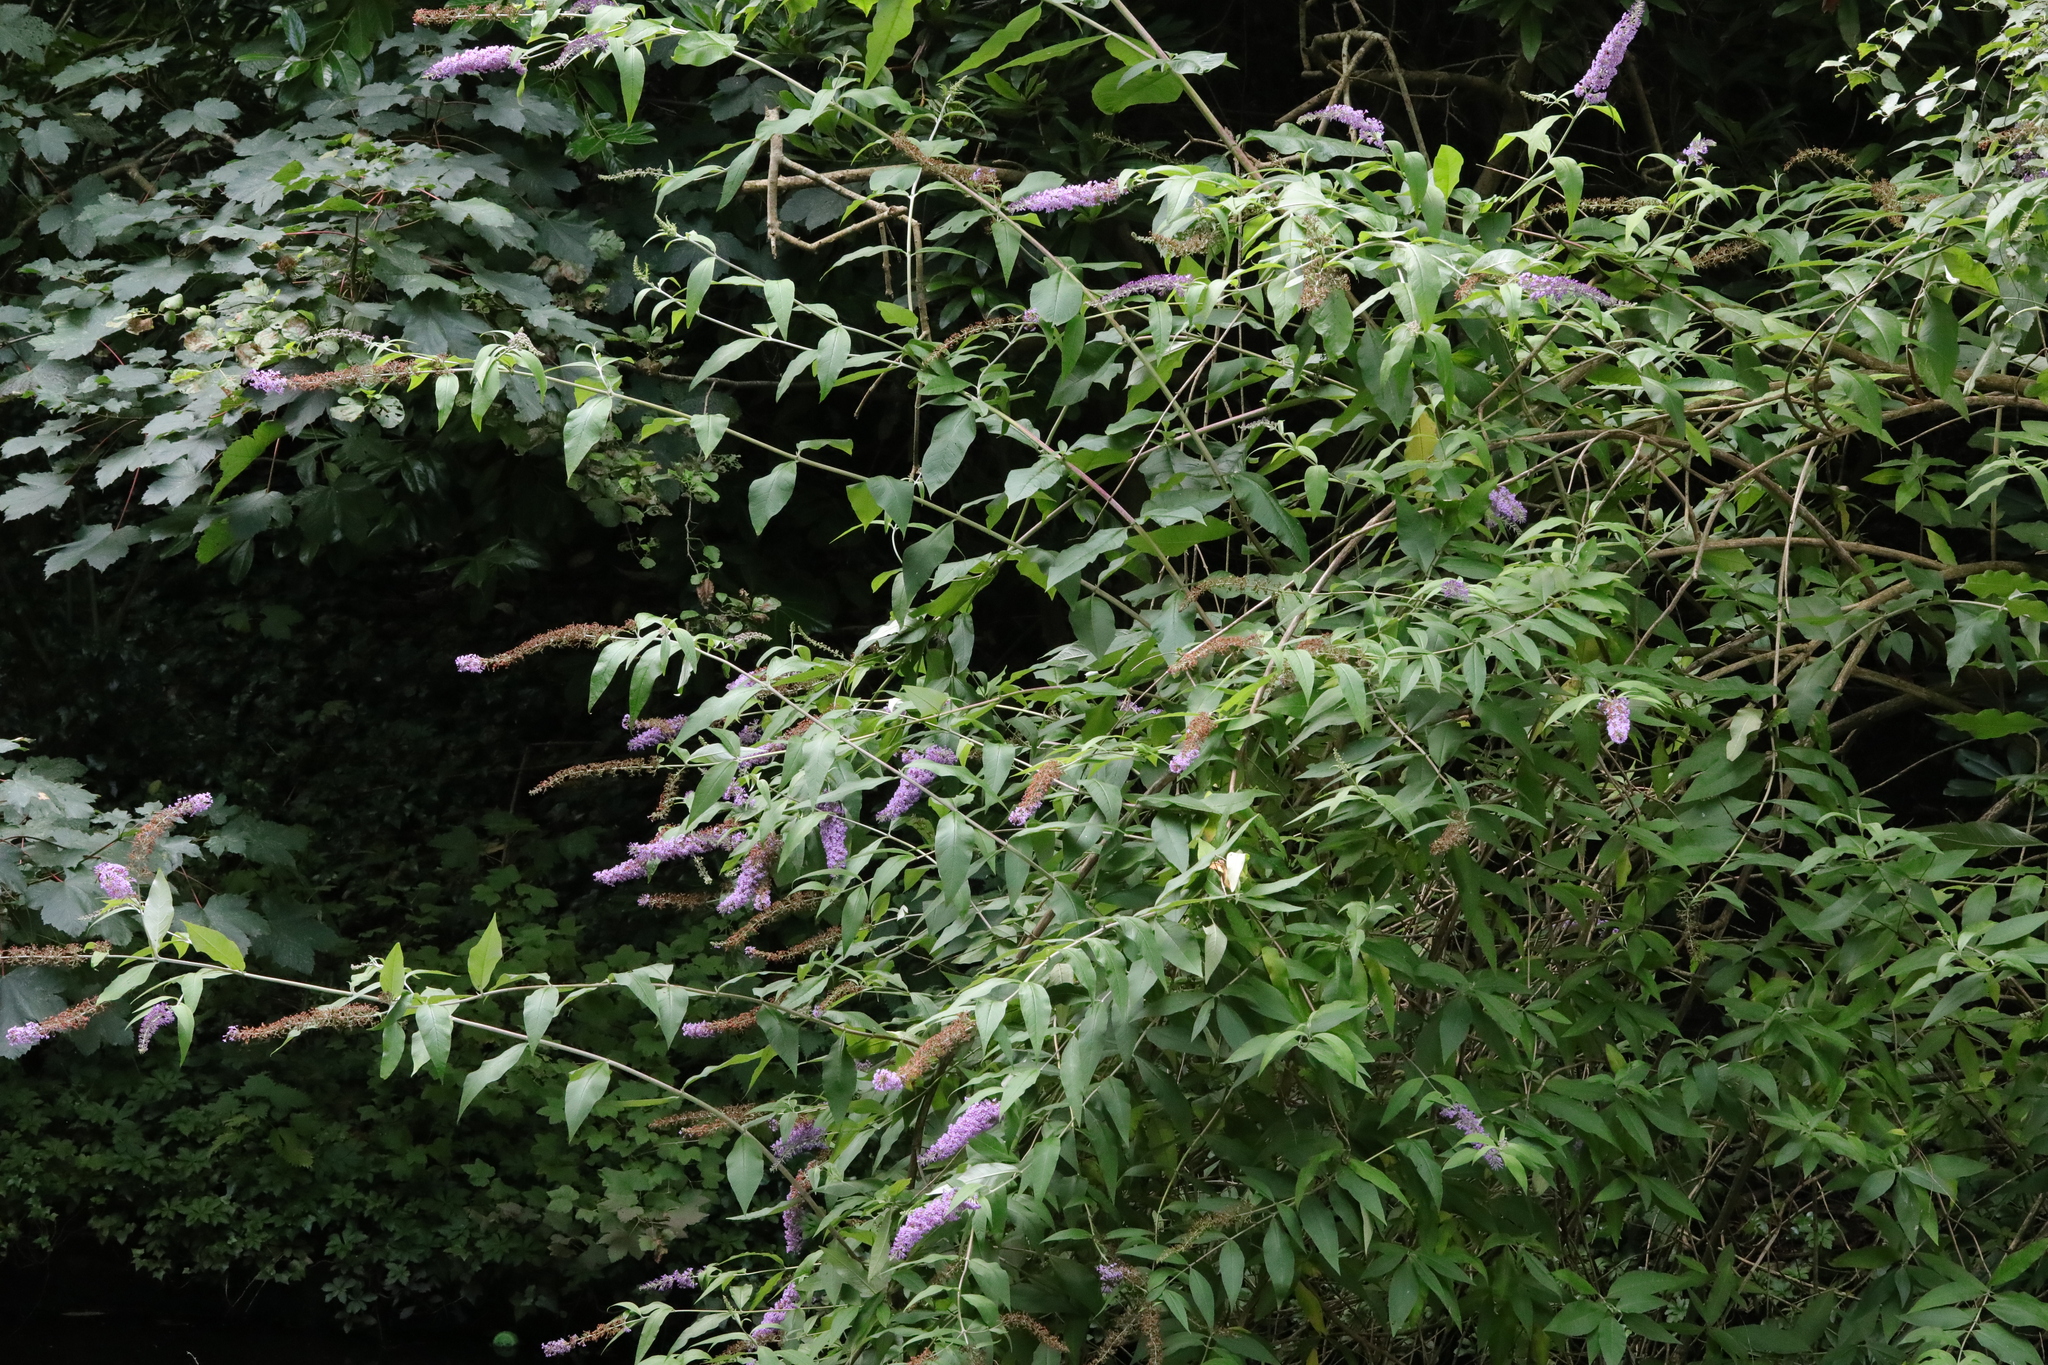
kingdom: Plantae
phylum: Tracheophyta
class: Magnoliopsida
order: Lamiales
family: Scrophulariaceae
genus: Buddleja
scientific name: Buddleja davidii
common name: Butterfly-bush
